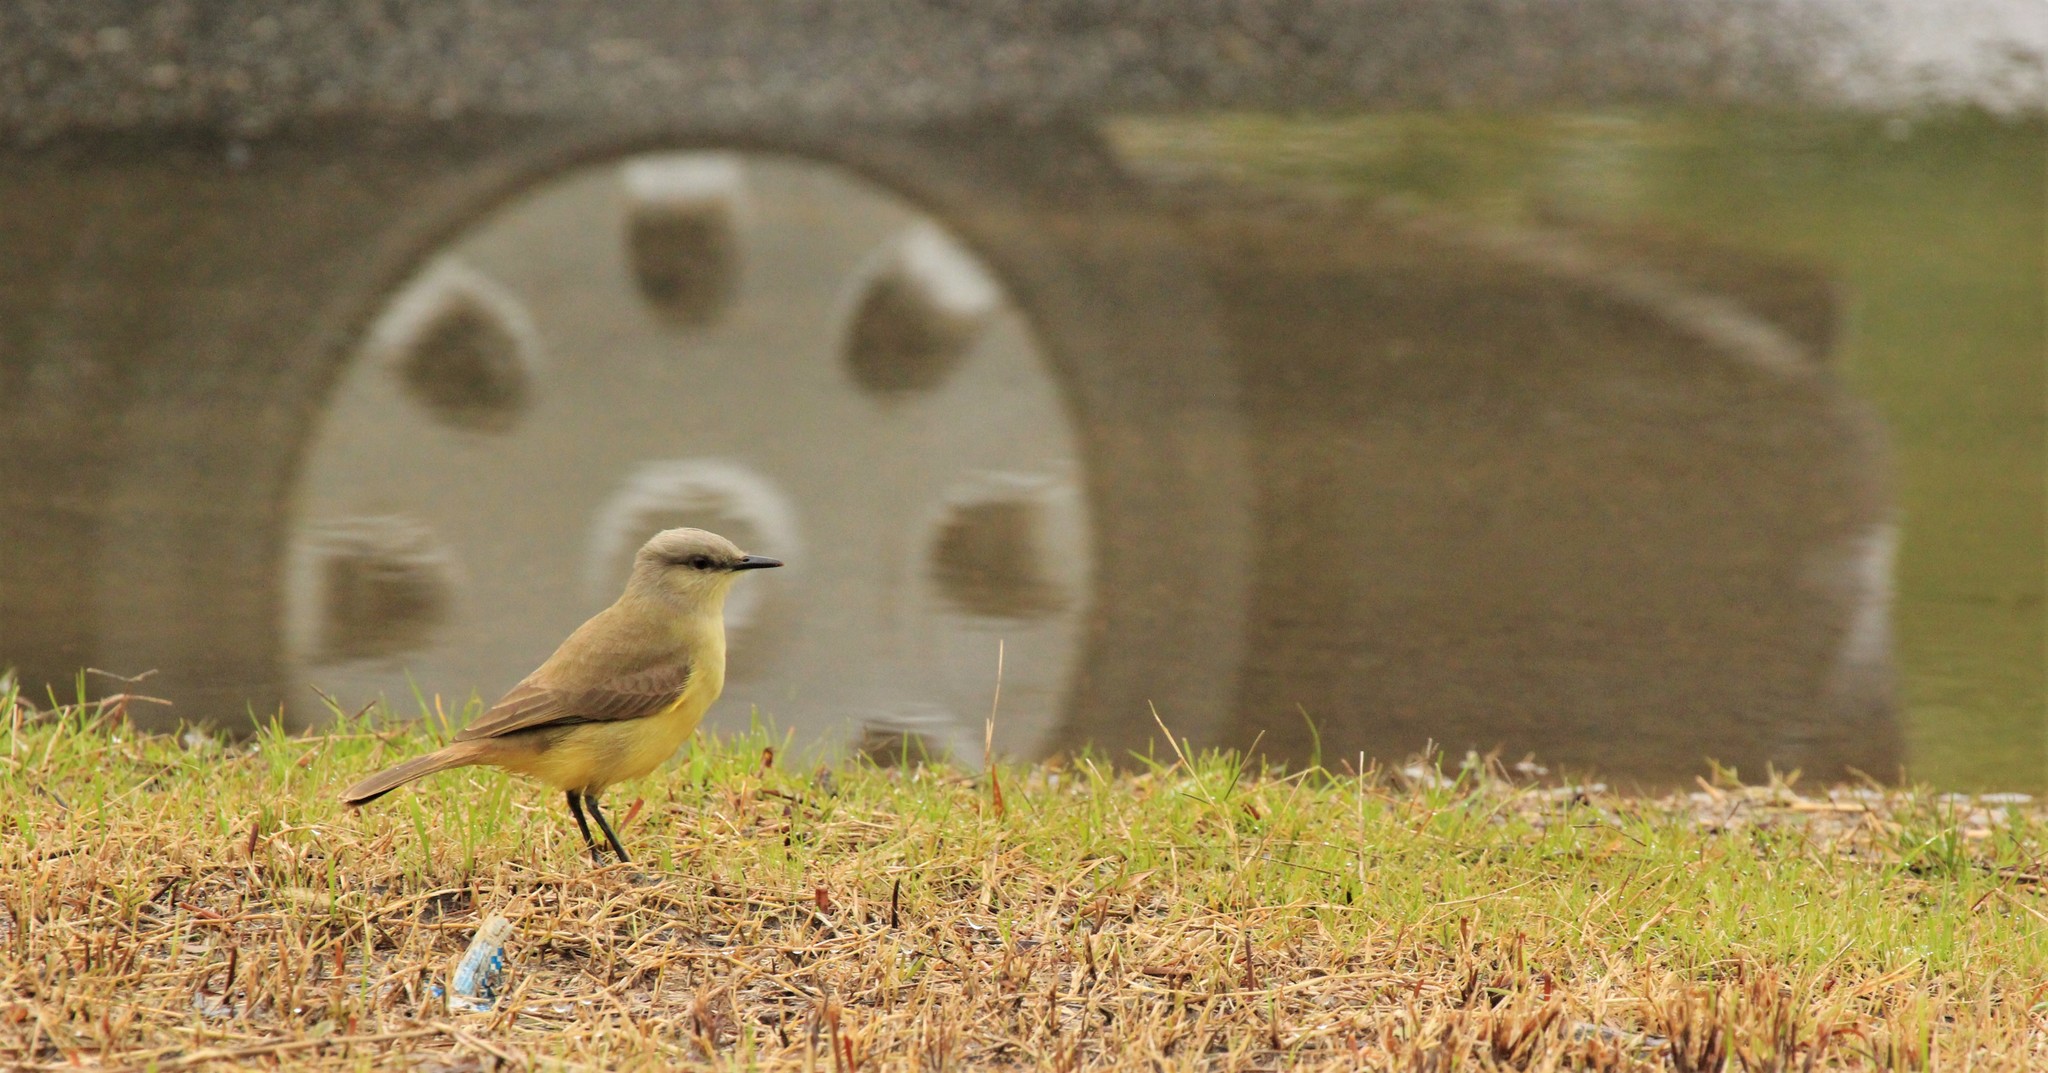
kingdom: Animalia
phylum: Chordata
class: Aves
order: Passeriformes
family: Tyrannidae
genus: Machetornis
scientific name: Machetornis rixosa
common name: Cattle tyrant
